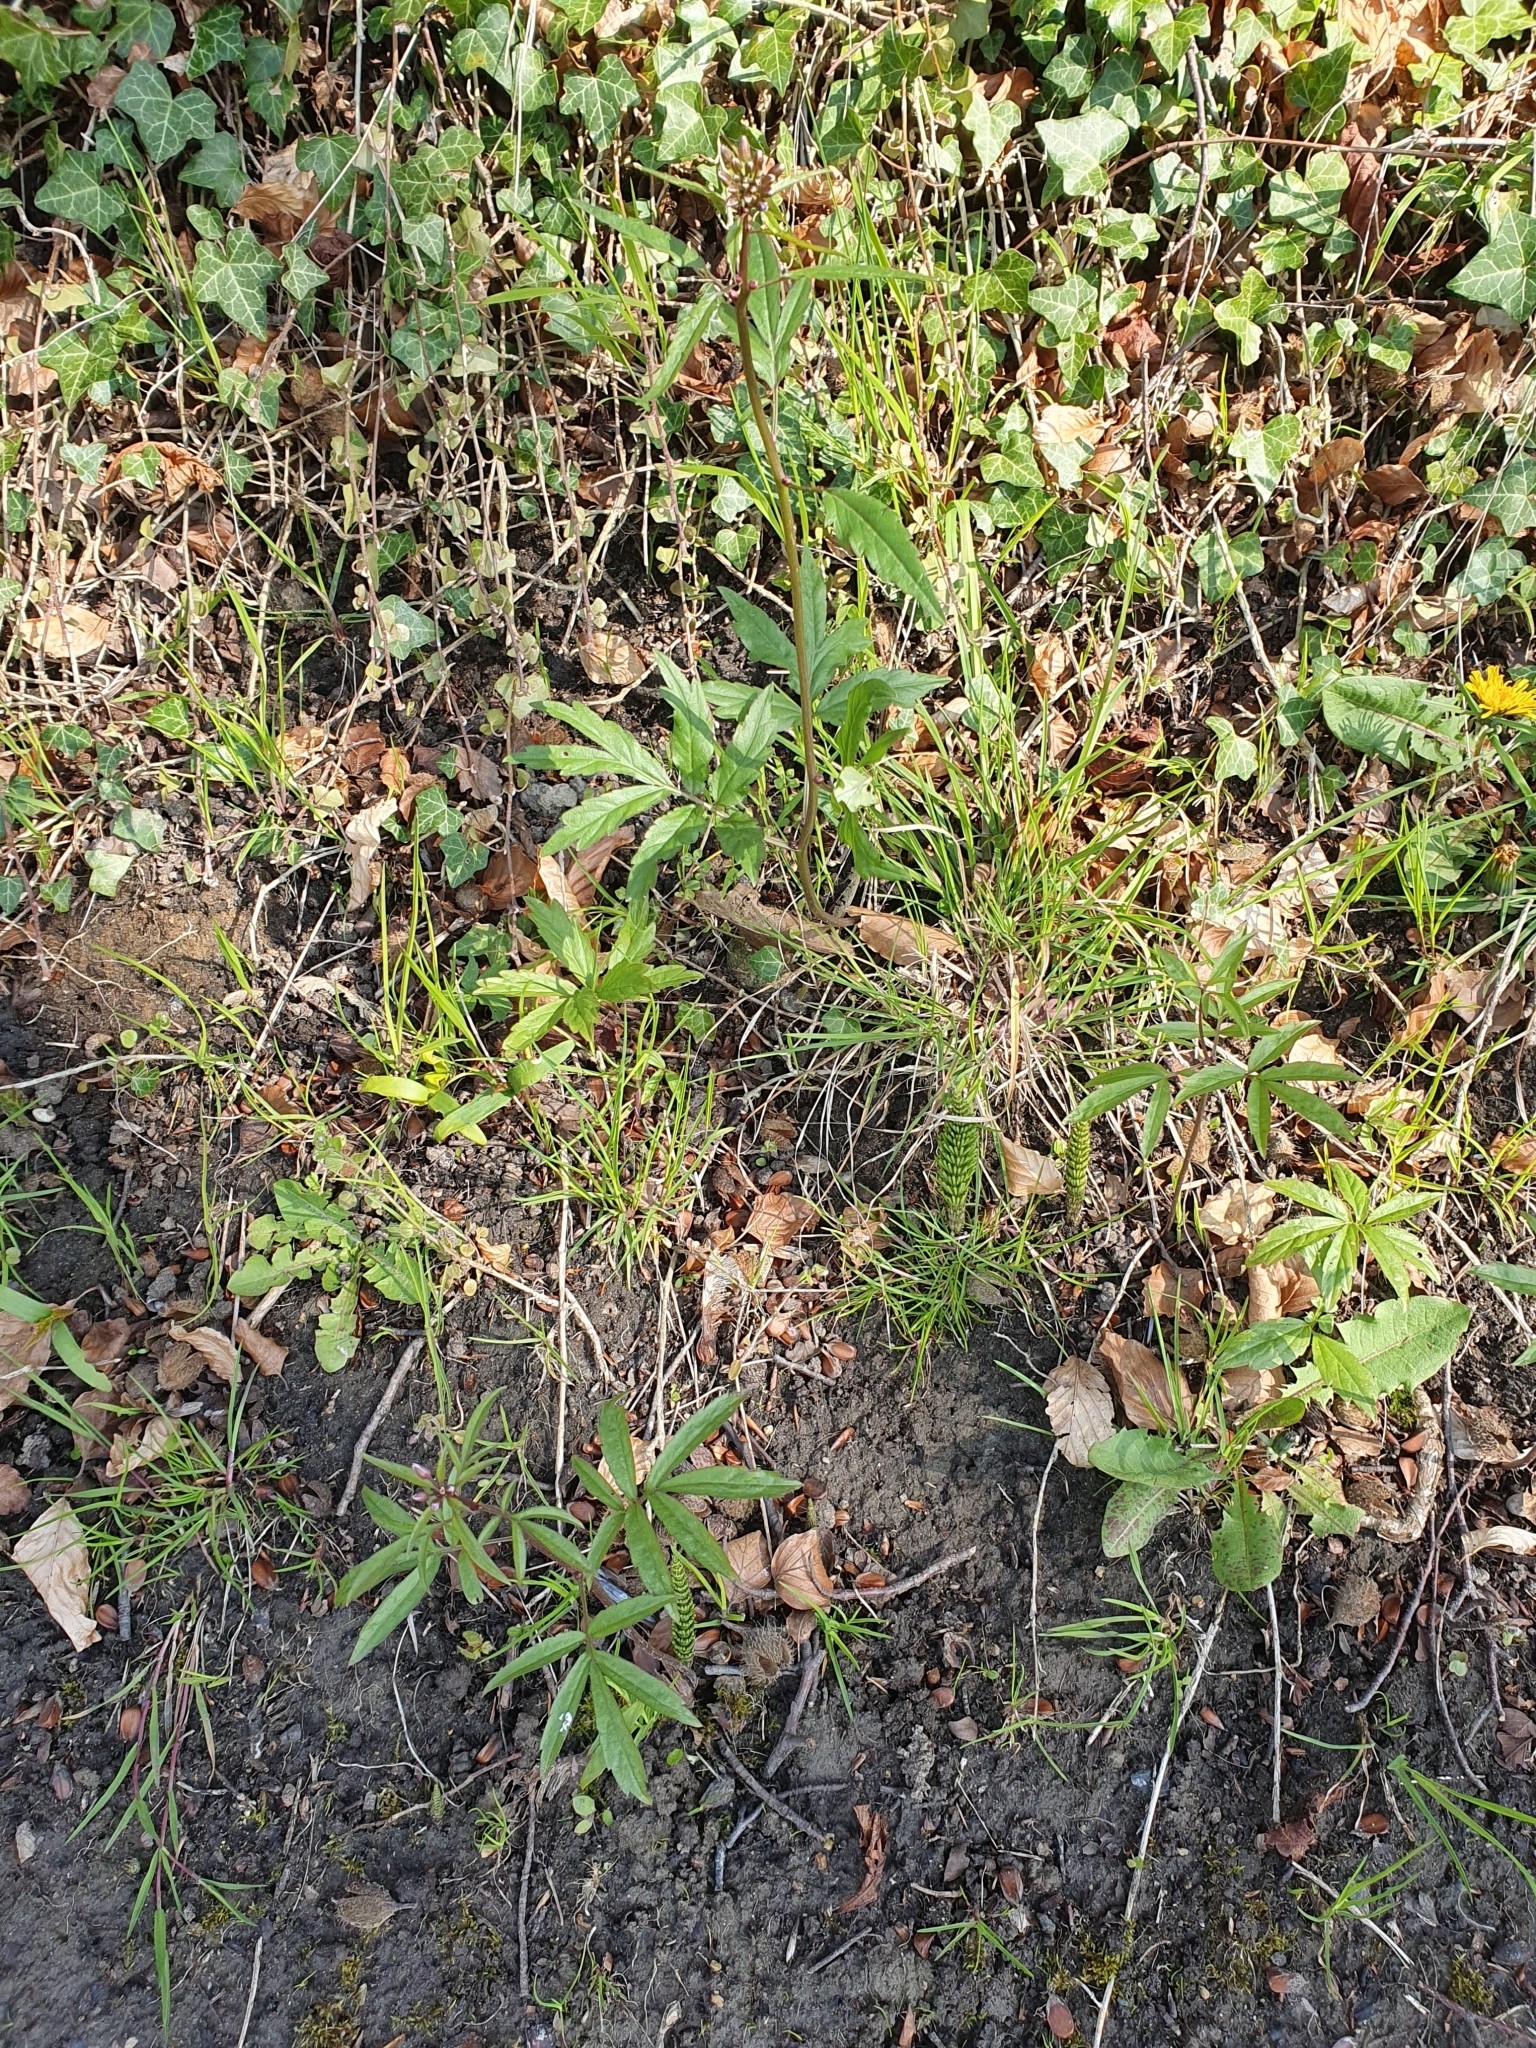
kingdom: Plantae
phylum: Tracheophyta
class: Magnoliopsida
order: Brassicales
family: Brassicaceae
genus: Cardamine
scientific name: Cardamine bulbifera
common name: Coralroot bittercress
